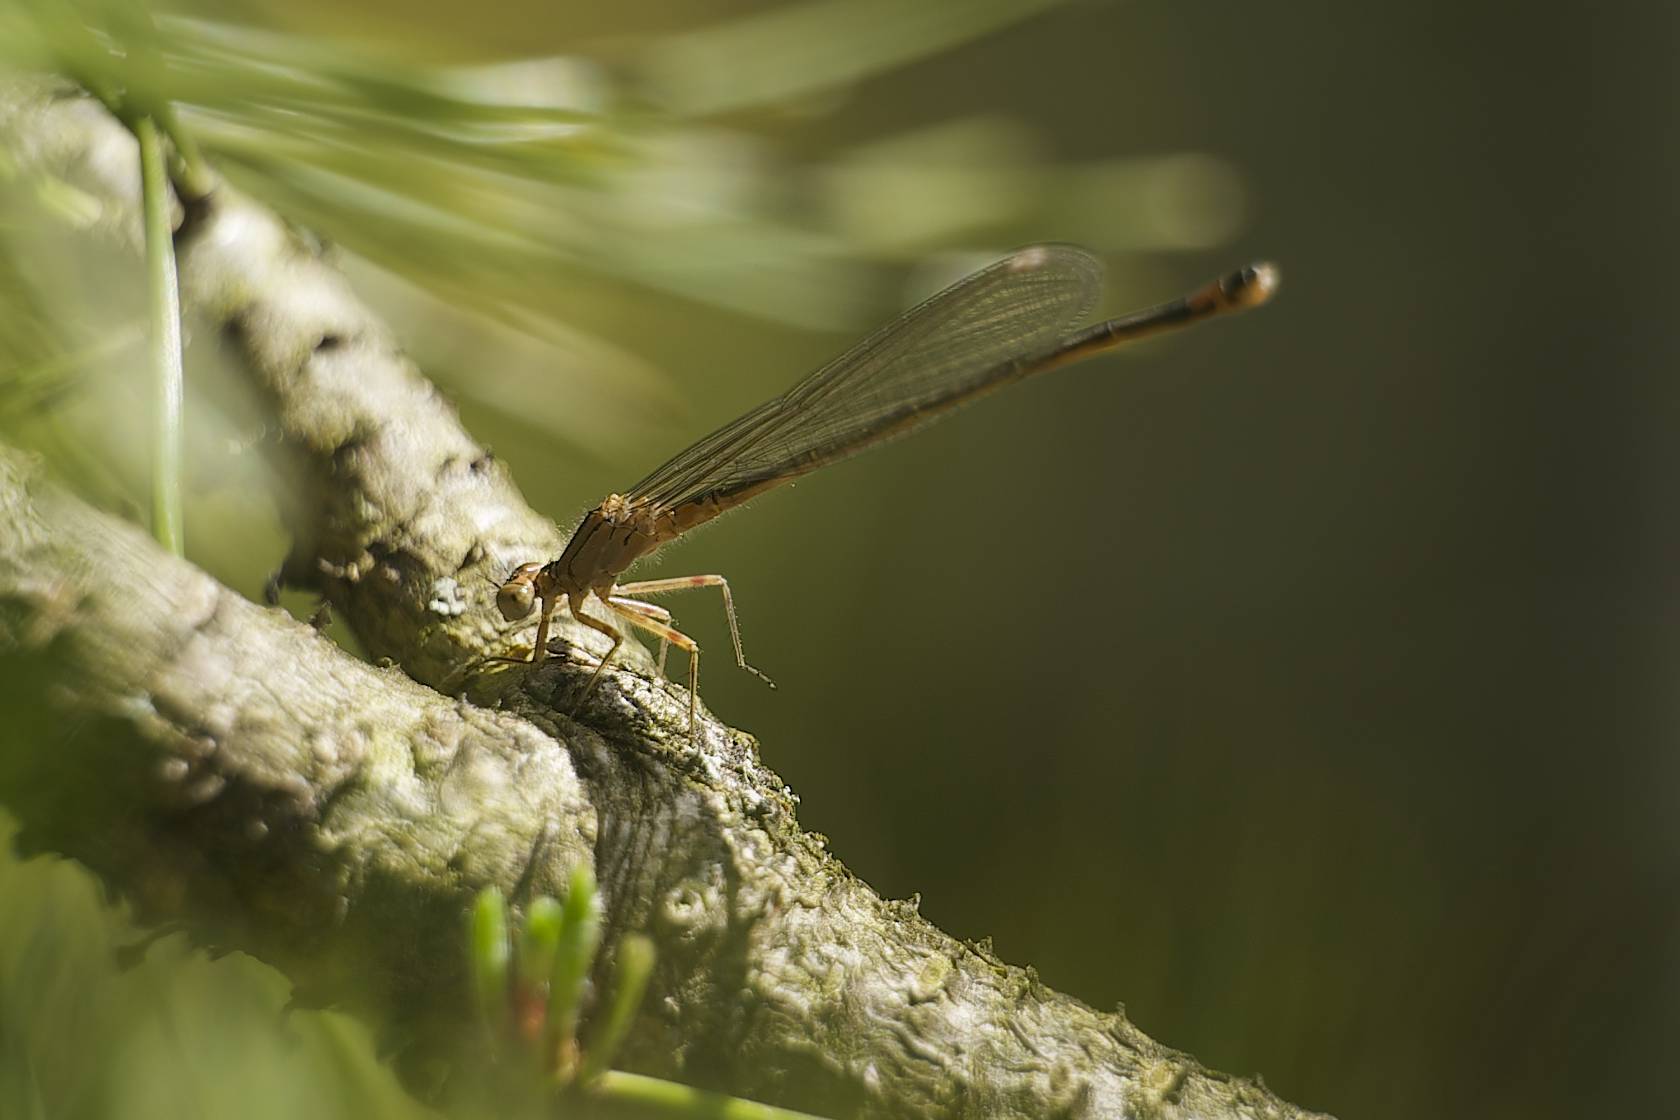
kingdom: Animalia
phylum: Arthropoda
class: Insecta
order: Odonata
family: Coenagrionidae
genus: Ischnura
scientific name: Ischnura cervula
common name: Pacific forktail
